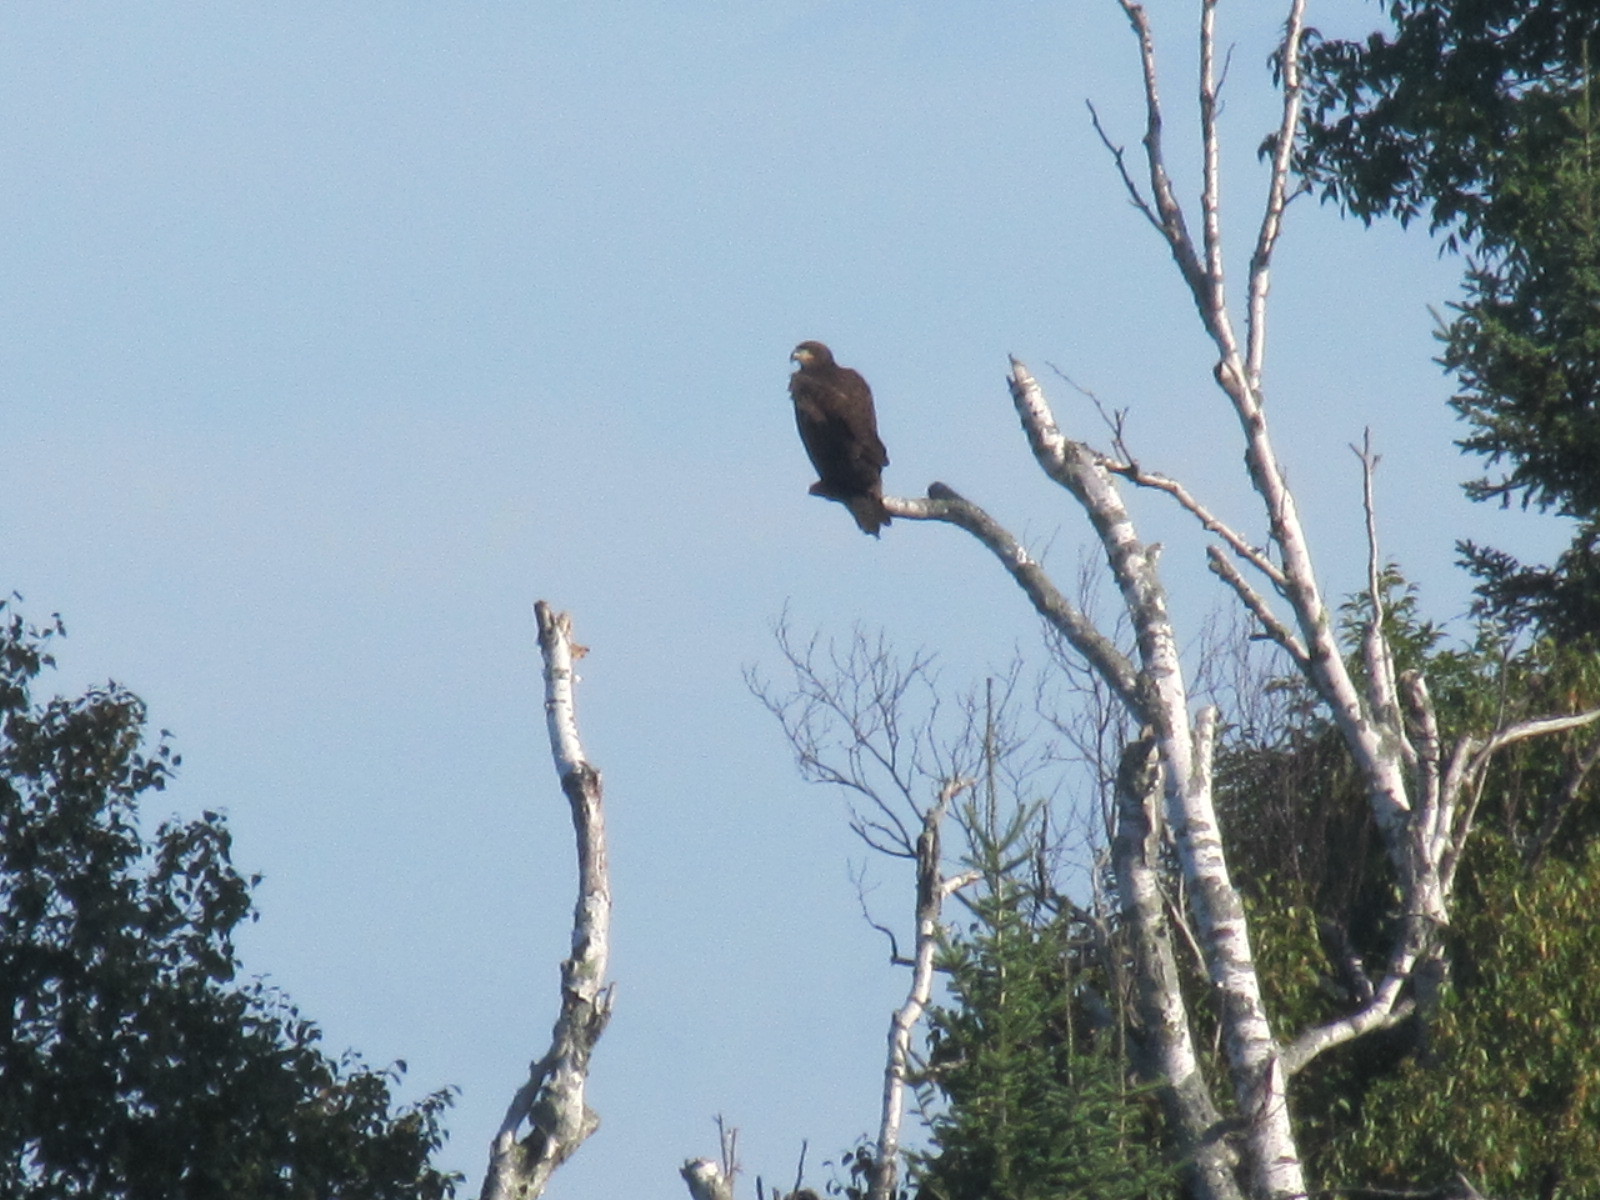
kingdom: Animalia
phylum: Chordata
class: Aves
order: Accipitriformes
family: Accipitridae
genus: Haliaeetus
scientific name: Haliaeetus leucocephalus
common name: Bald eagle
